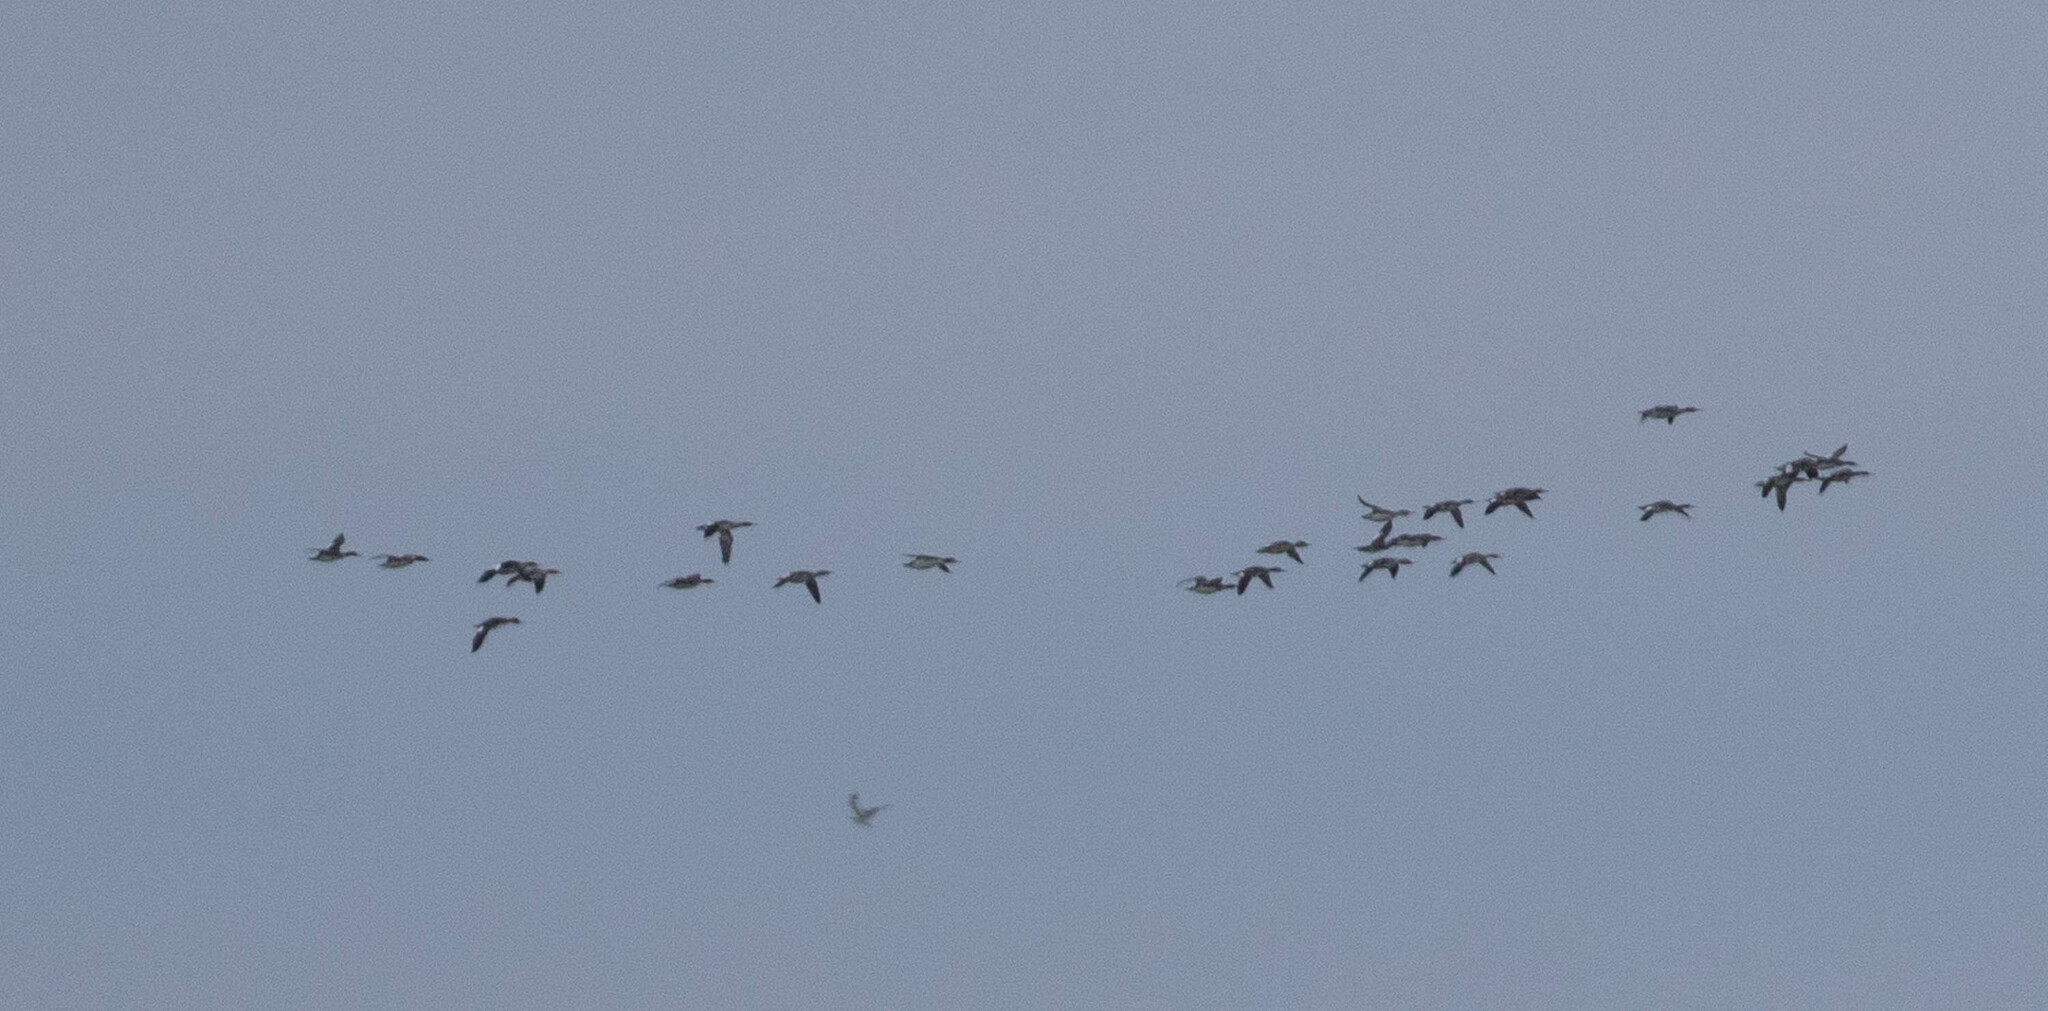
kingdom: Animalia
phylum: Chordata
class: Aves
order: Anseriformes
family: Anatidae
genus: Mergus
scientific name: Mergus serrator
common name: Red-breasted merganser
